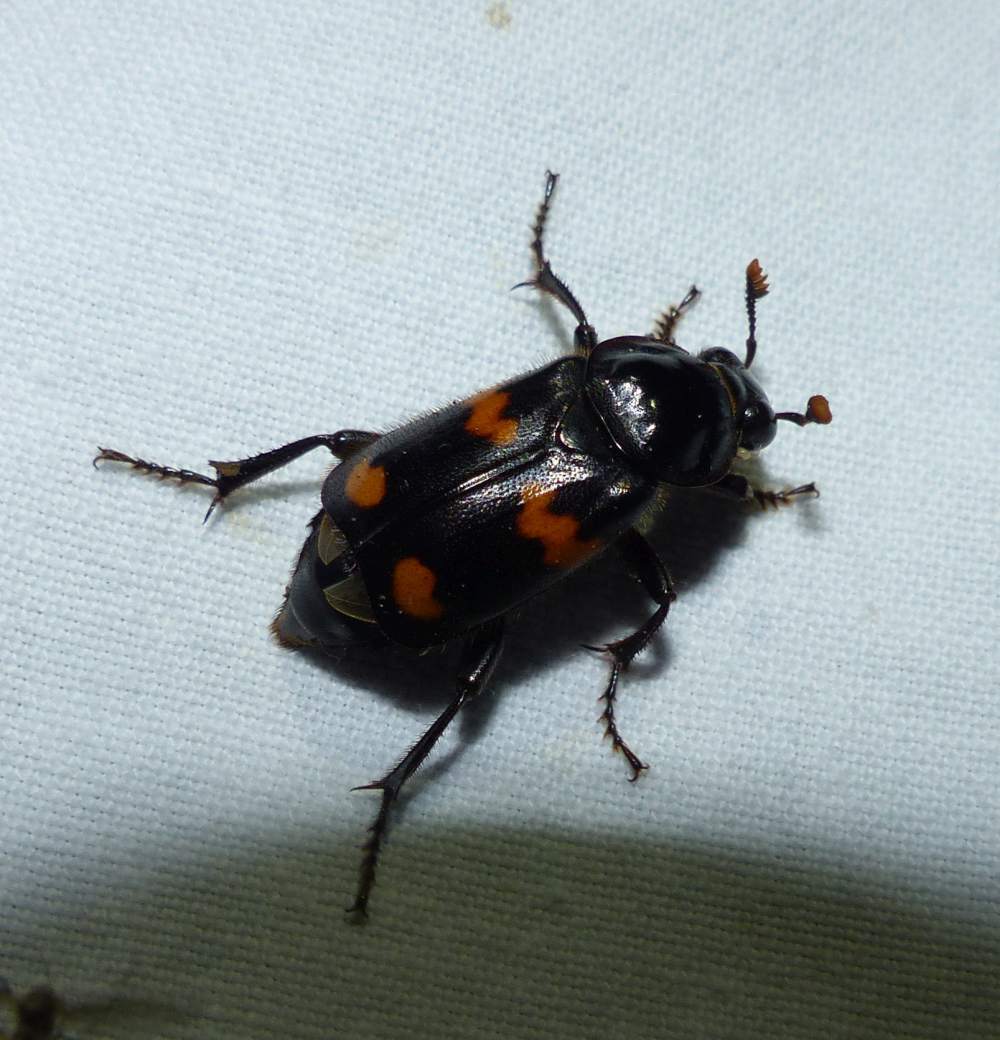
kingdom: Animalia
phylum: Arthropoda
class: Insecta
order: Coleoptera
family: Staphylinidae
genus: Nicrophorus
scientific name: Nicrophorus orbicollis
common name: Roundneck sexton beetle
